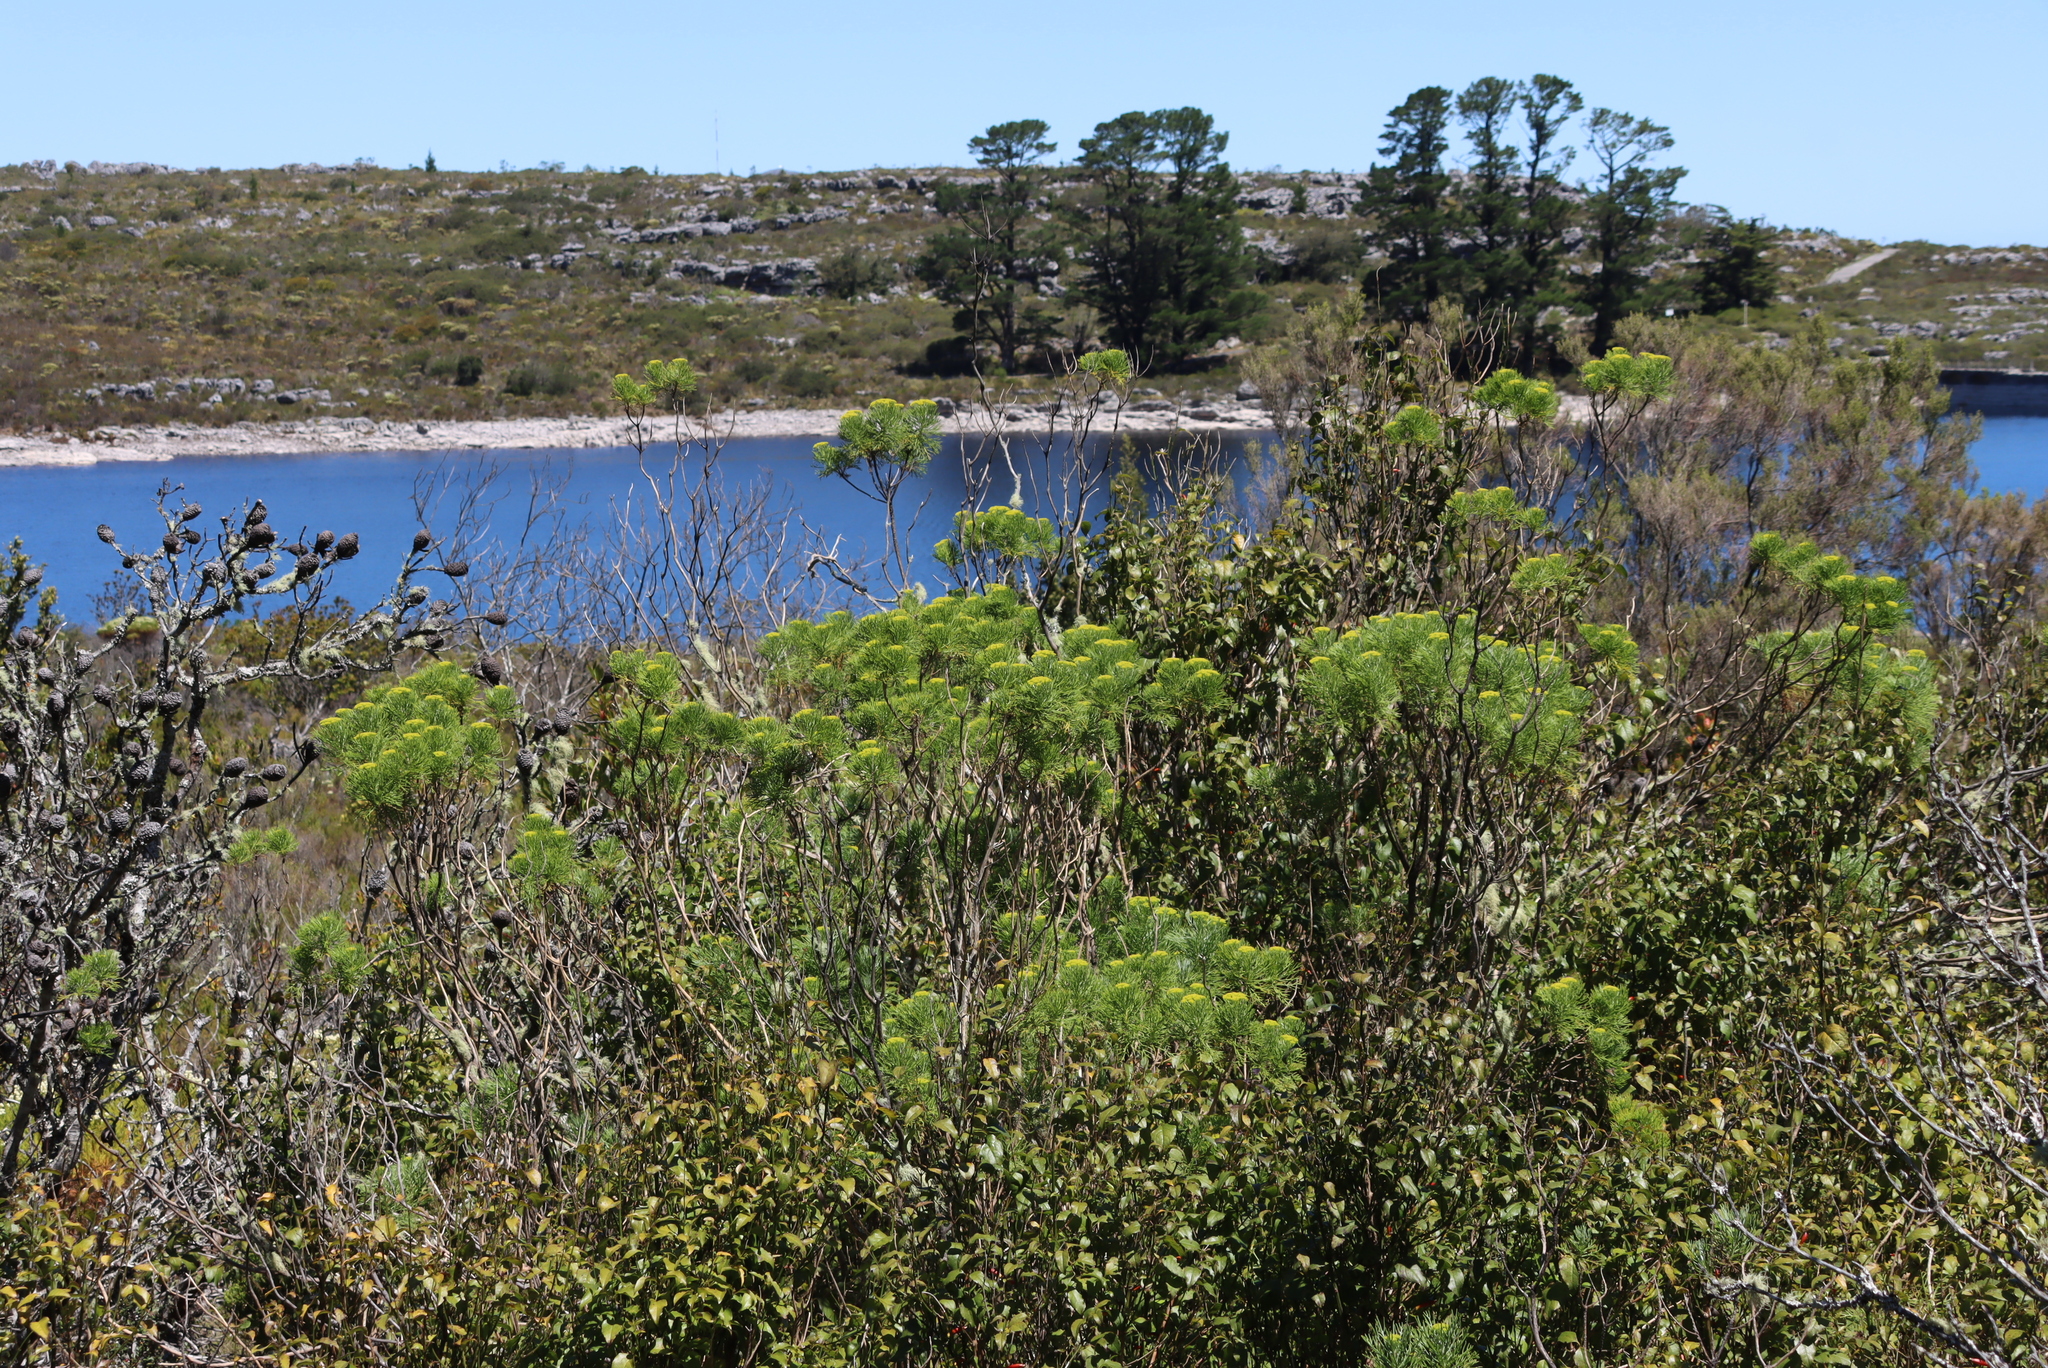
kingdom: Plantae
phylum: Tracheophyta
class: Pinopsida
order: Pinales
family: Pinaceae
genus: Pinus
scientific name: Pinus radiata
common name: Monterey pine
